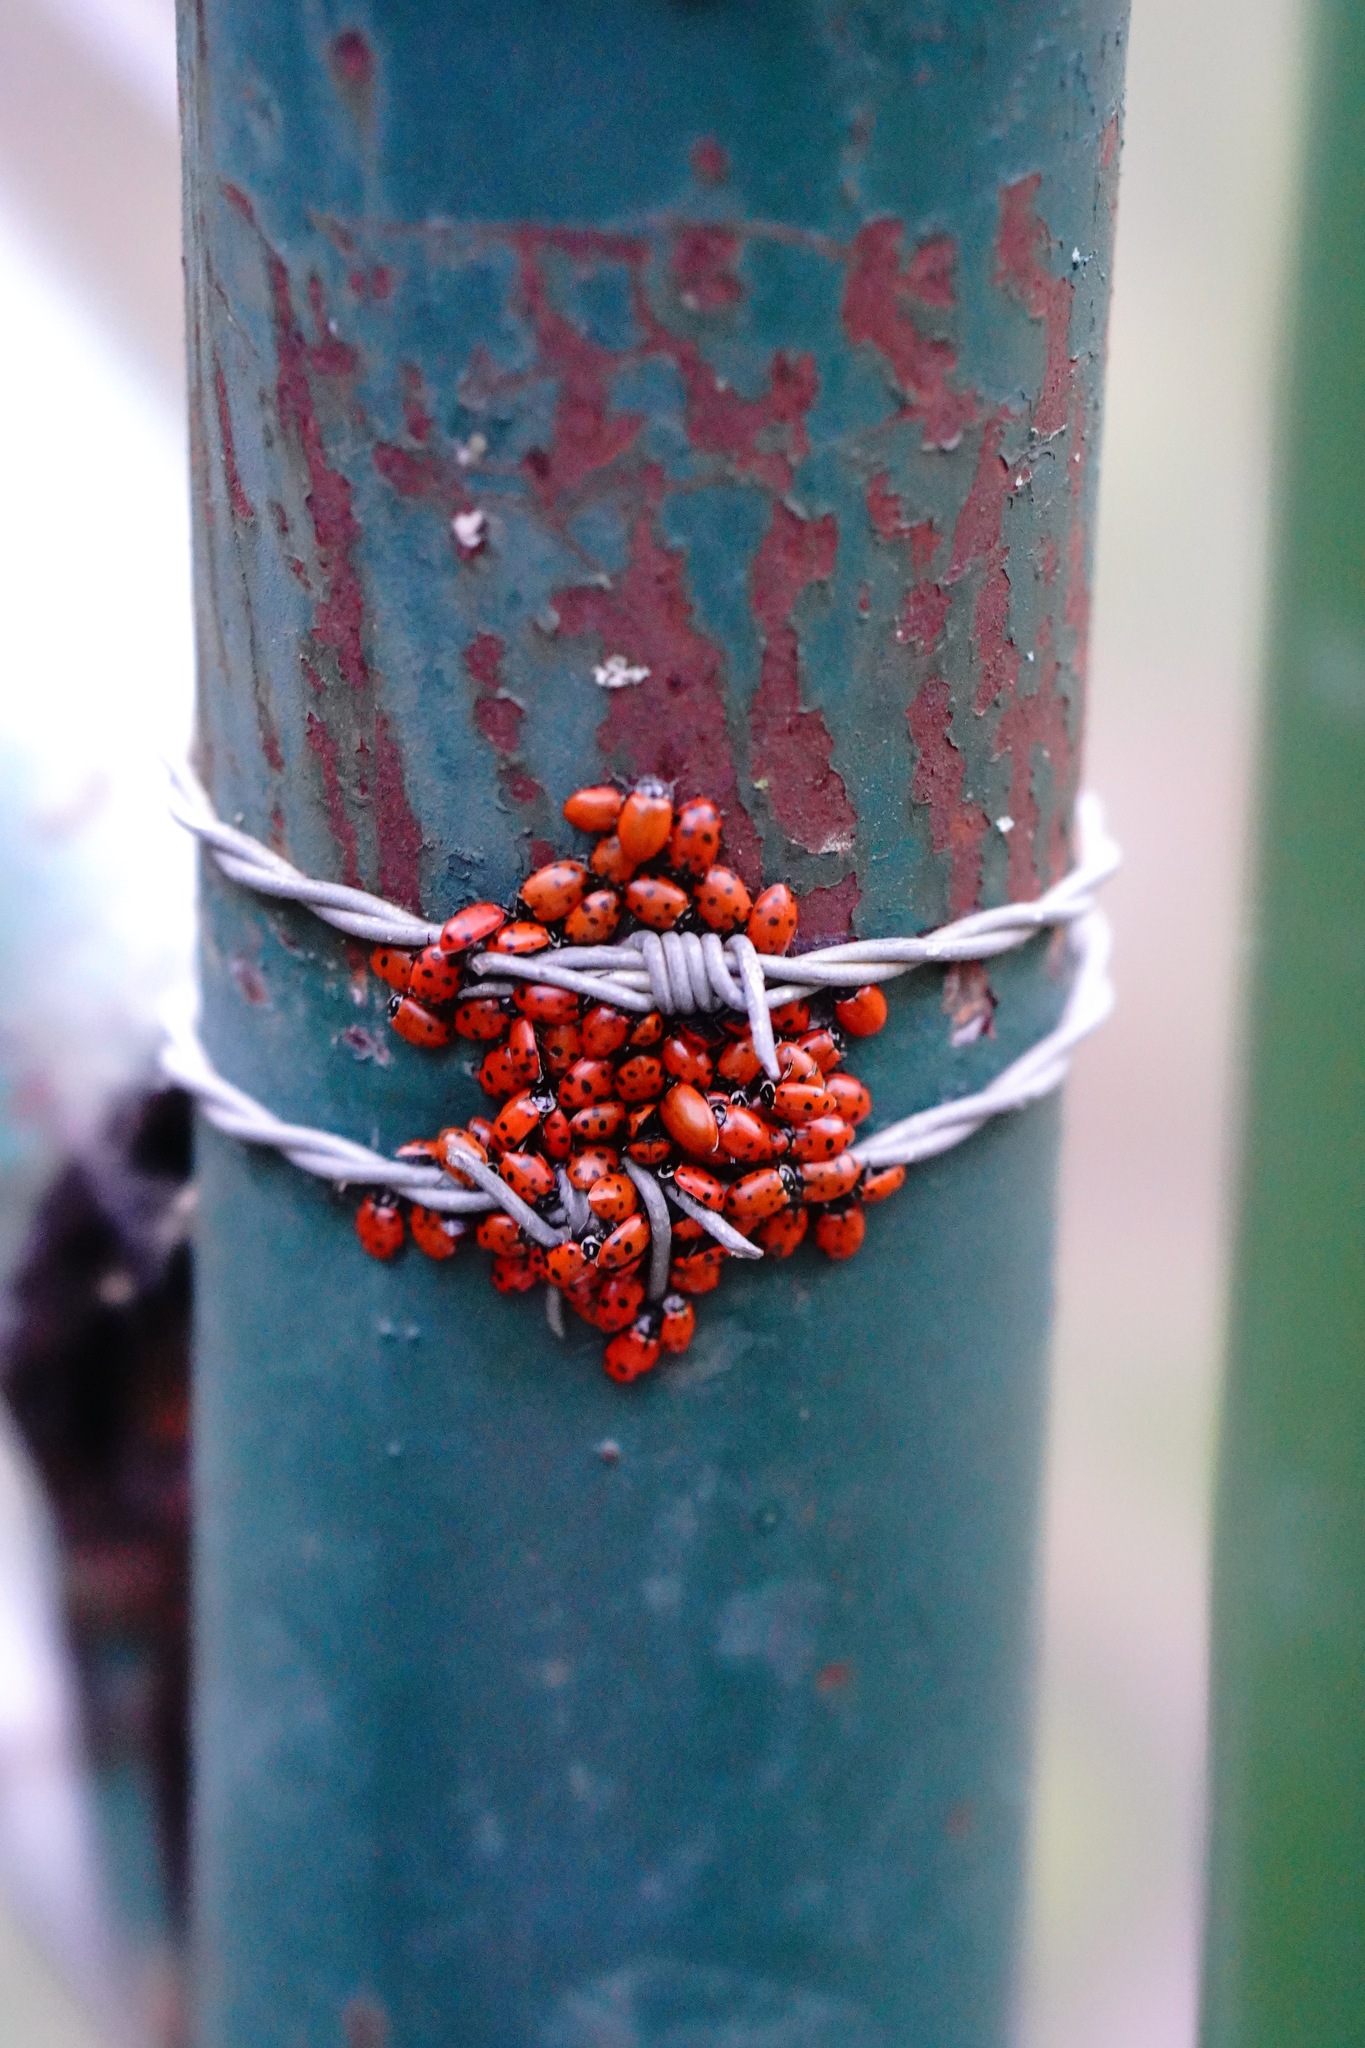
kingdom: Animalia
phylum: Arthropoda
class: Insecta
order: Coleoptera
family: Coccinellidae
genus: Hippodamia
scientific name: Hippodamia convergens
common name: Convergent lady beetle
